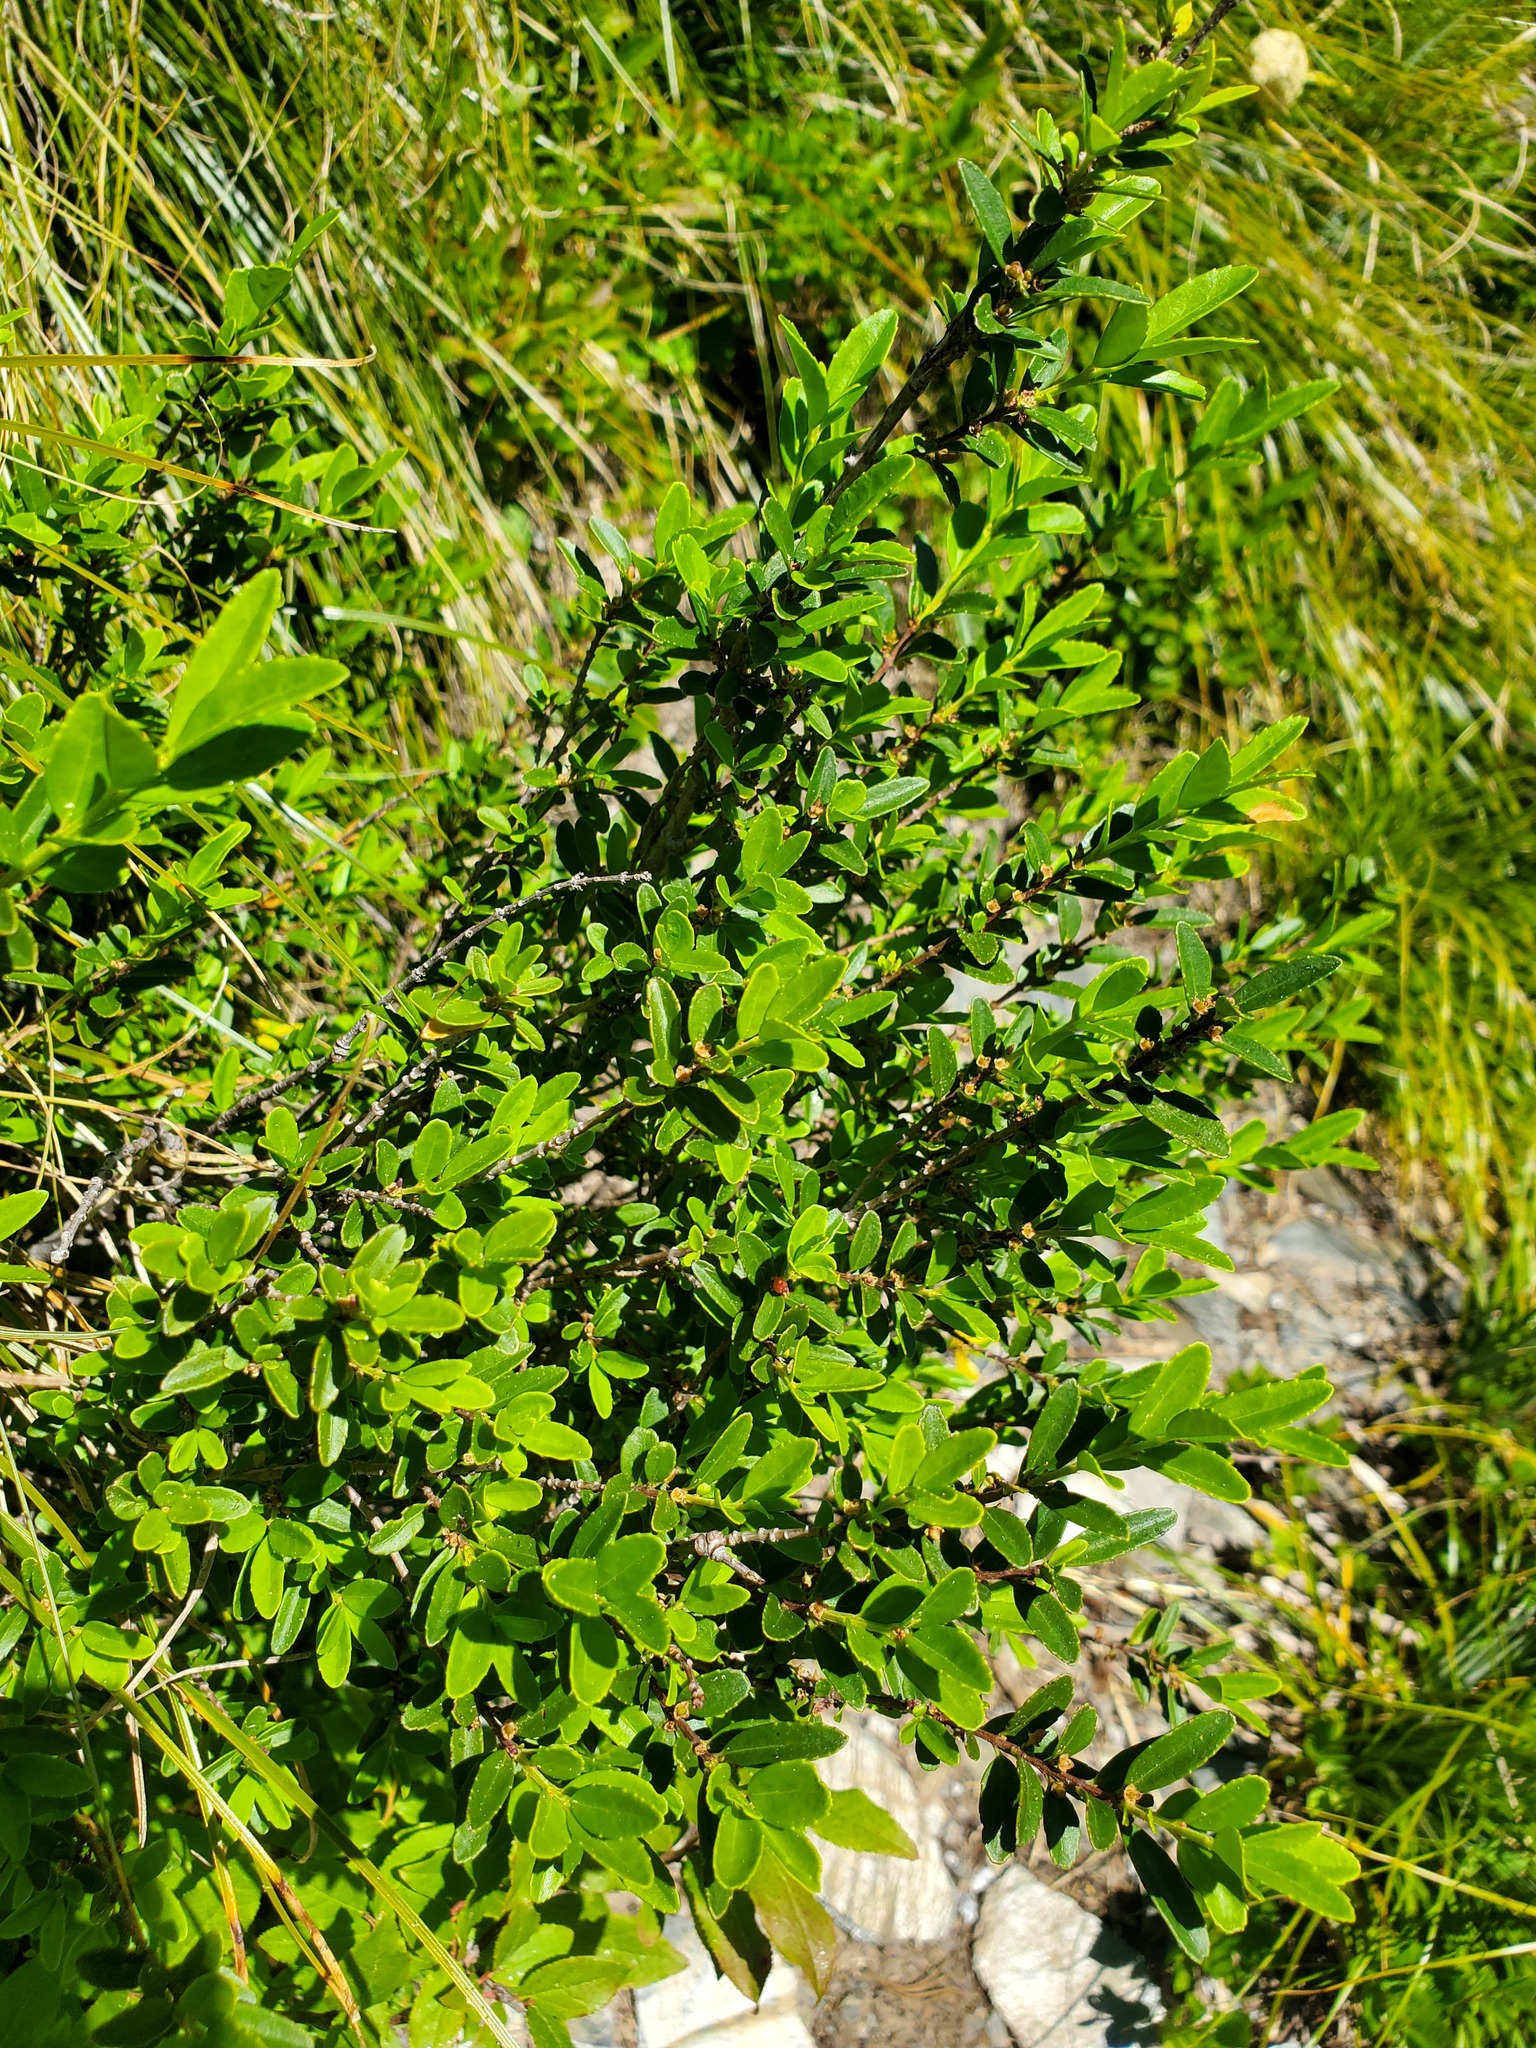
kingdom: Plantae
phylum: Tracheophyta
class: Magnoliopsida
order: Celastrales
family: Celastraceae
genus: Paxistima
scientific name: Paxistima myrsinites
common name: Mountain-lover
